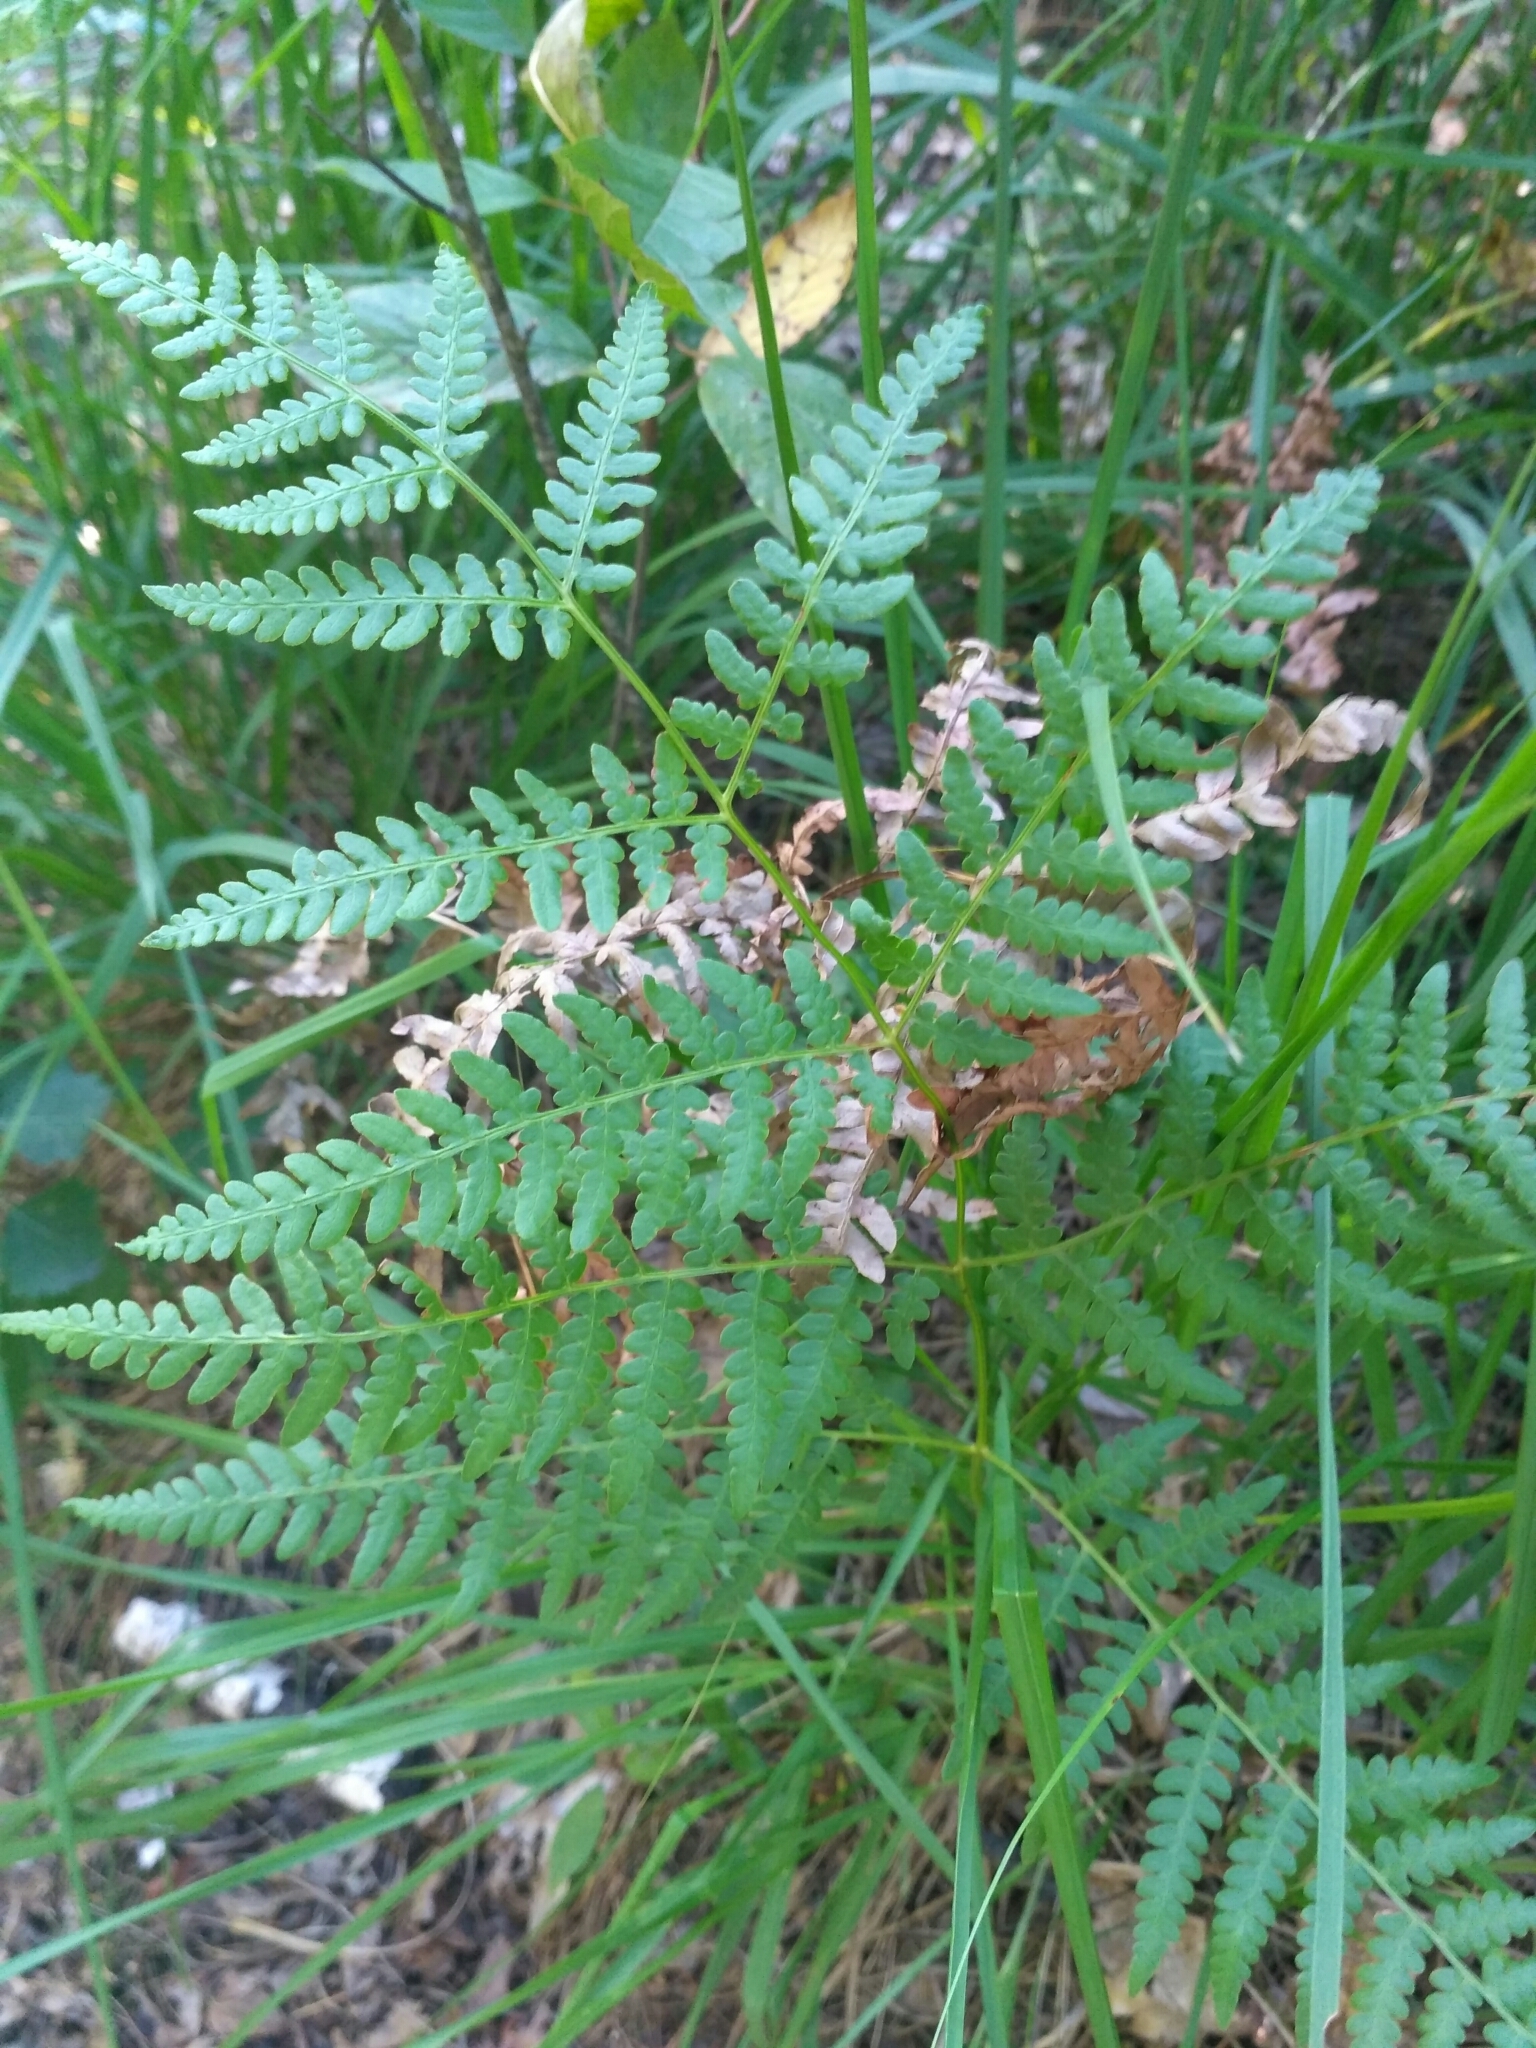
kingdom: Plantae
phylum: Tracheophyta
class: Polypodiopsida
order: Polypodiales
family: Dennstaedtiaceae
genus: Pteridium
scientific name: Pteridium aquilinum
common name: Bracken
